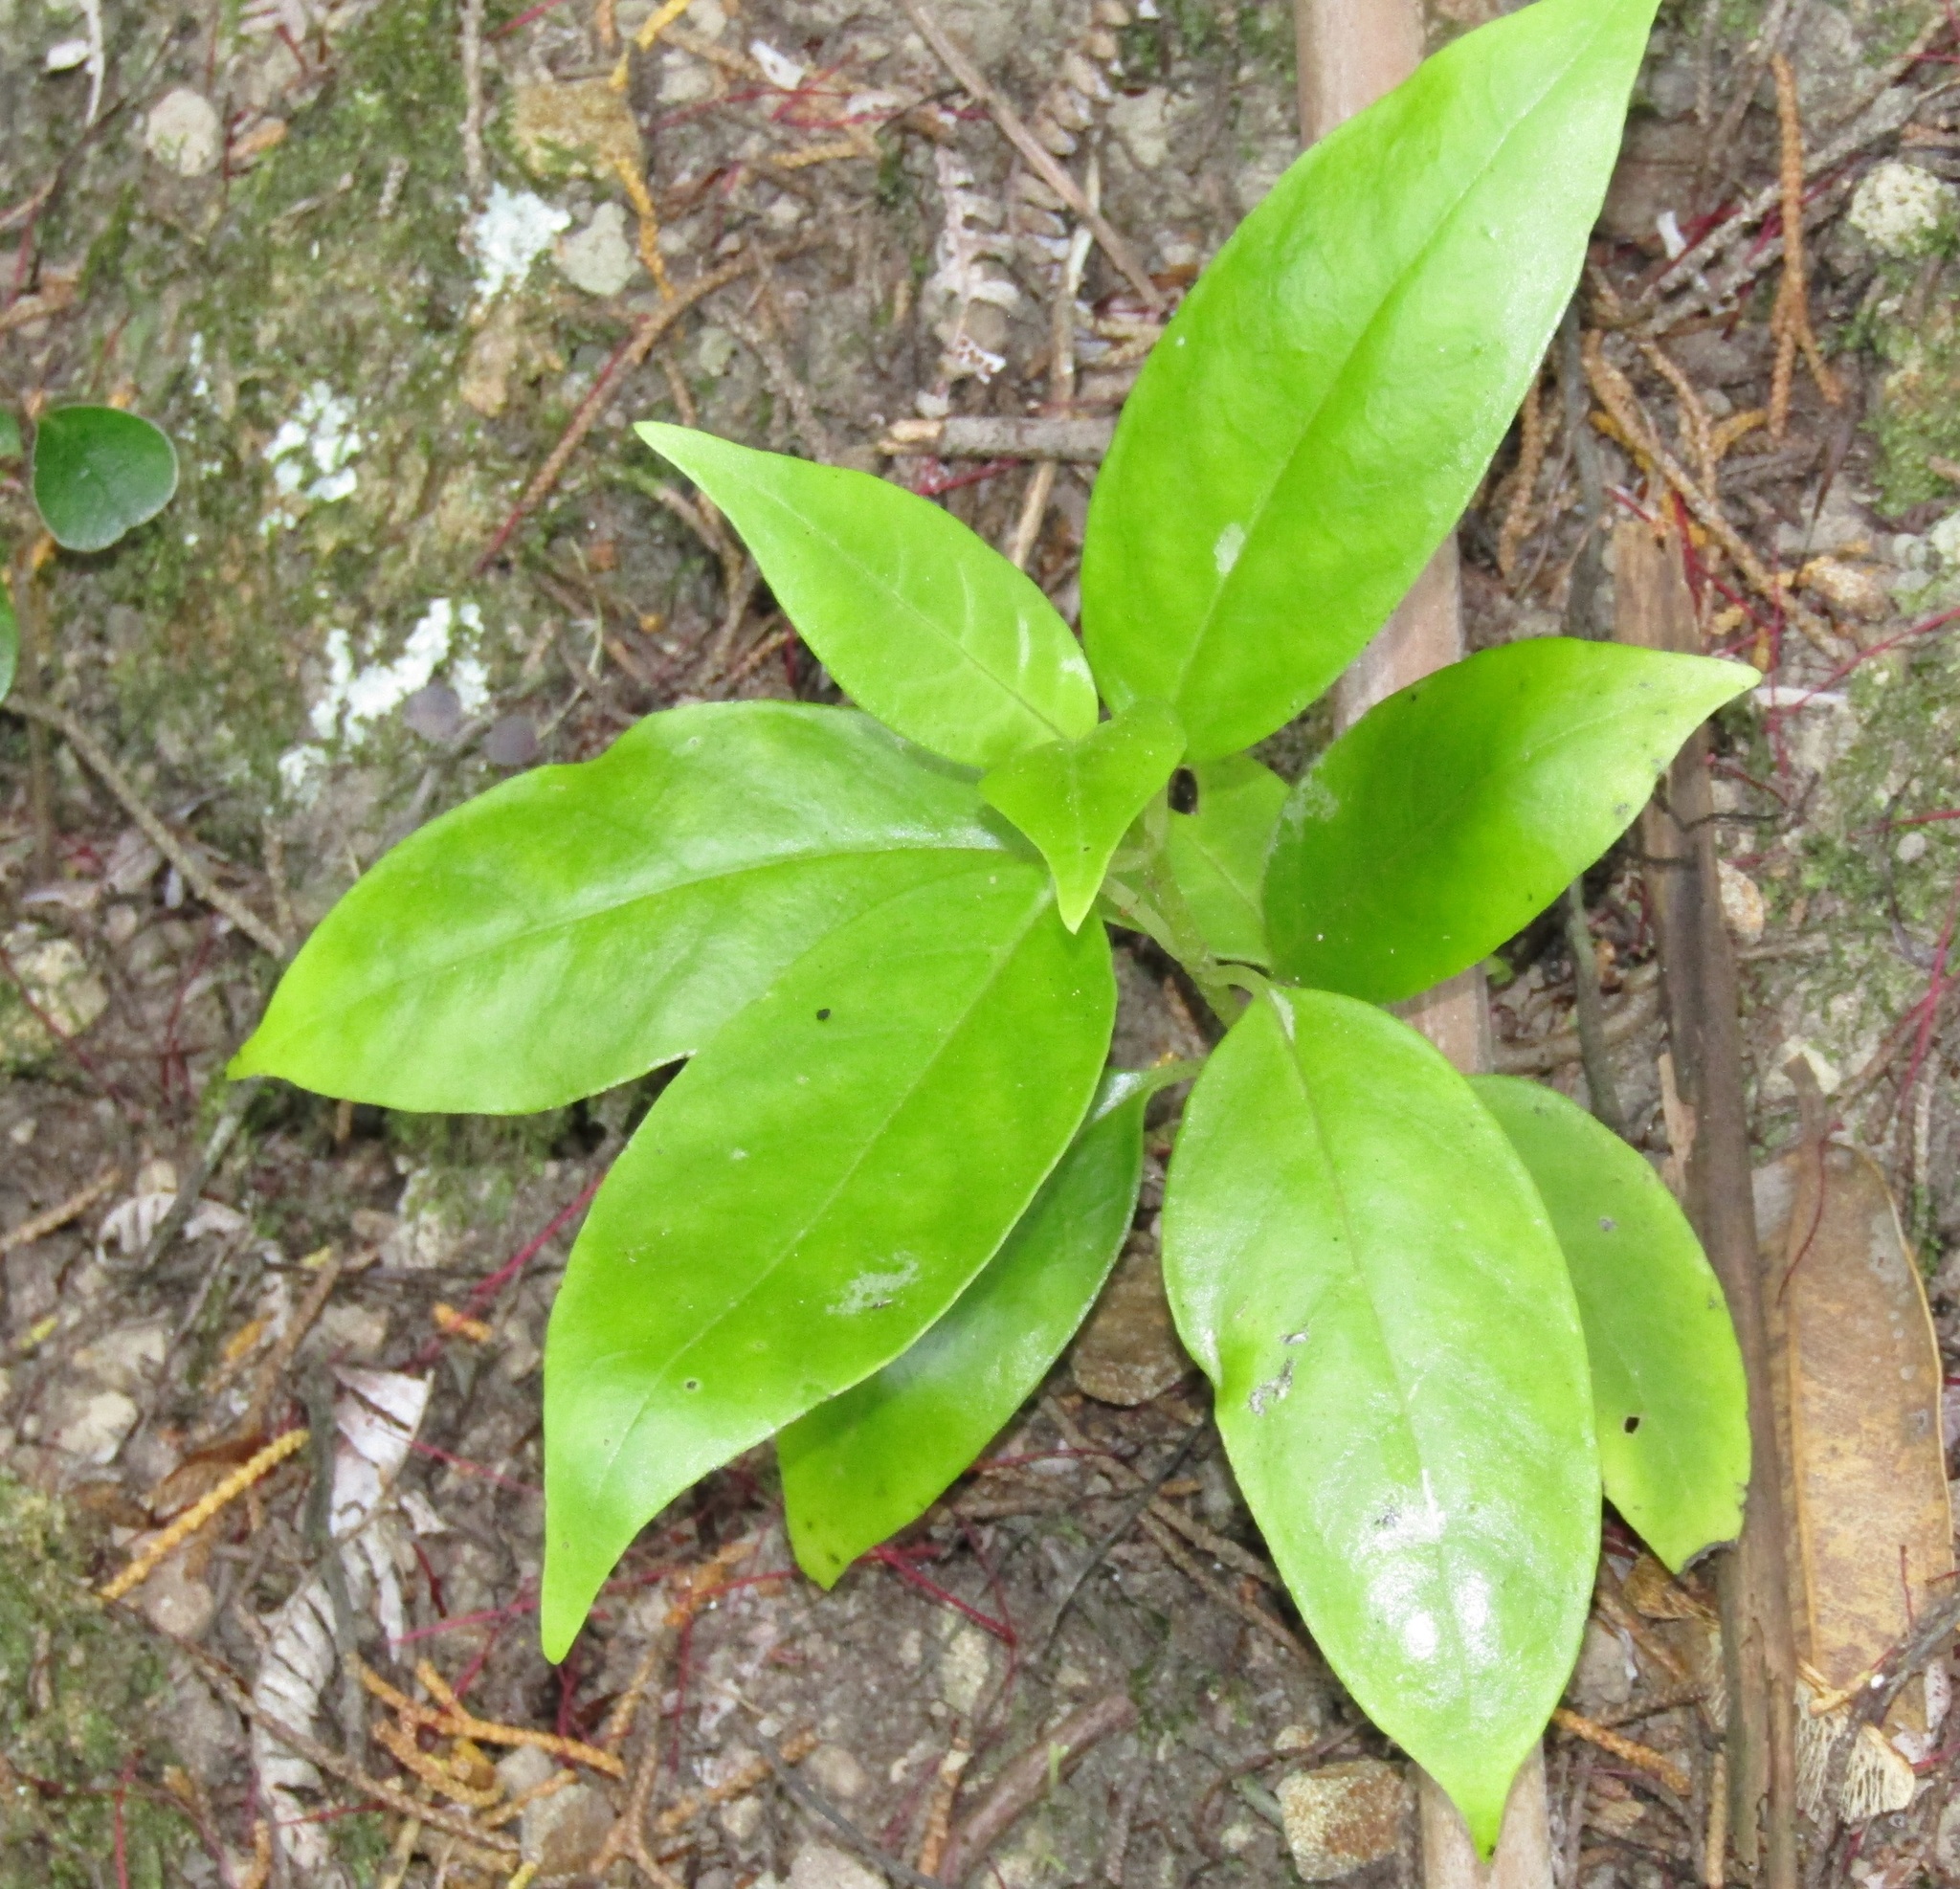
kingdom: Plantae
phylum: Tracheophyta
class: Magnoliopsida
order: Gentianales
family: Loganiaceae
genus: Geniostoma
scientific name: Geniostoma ligustrifolium
